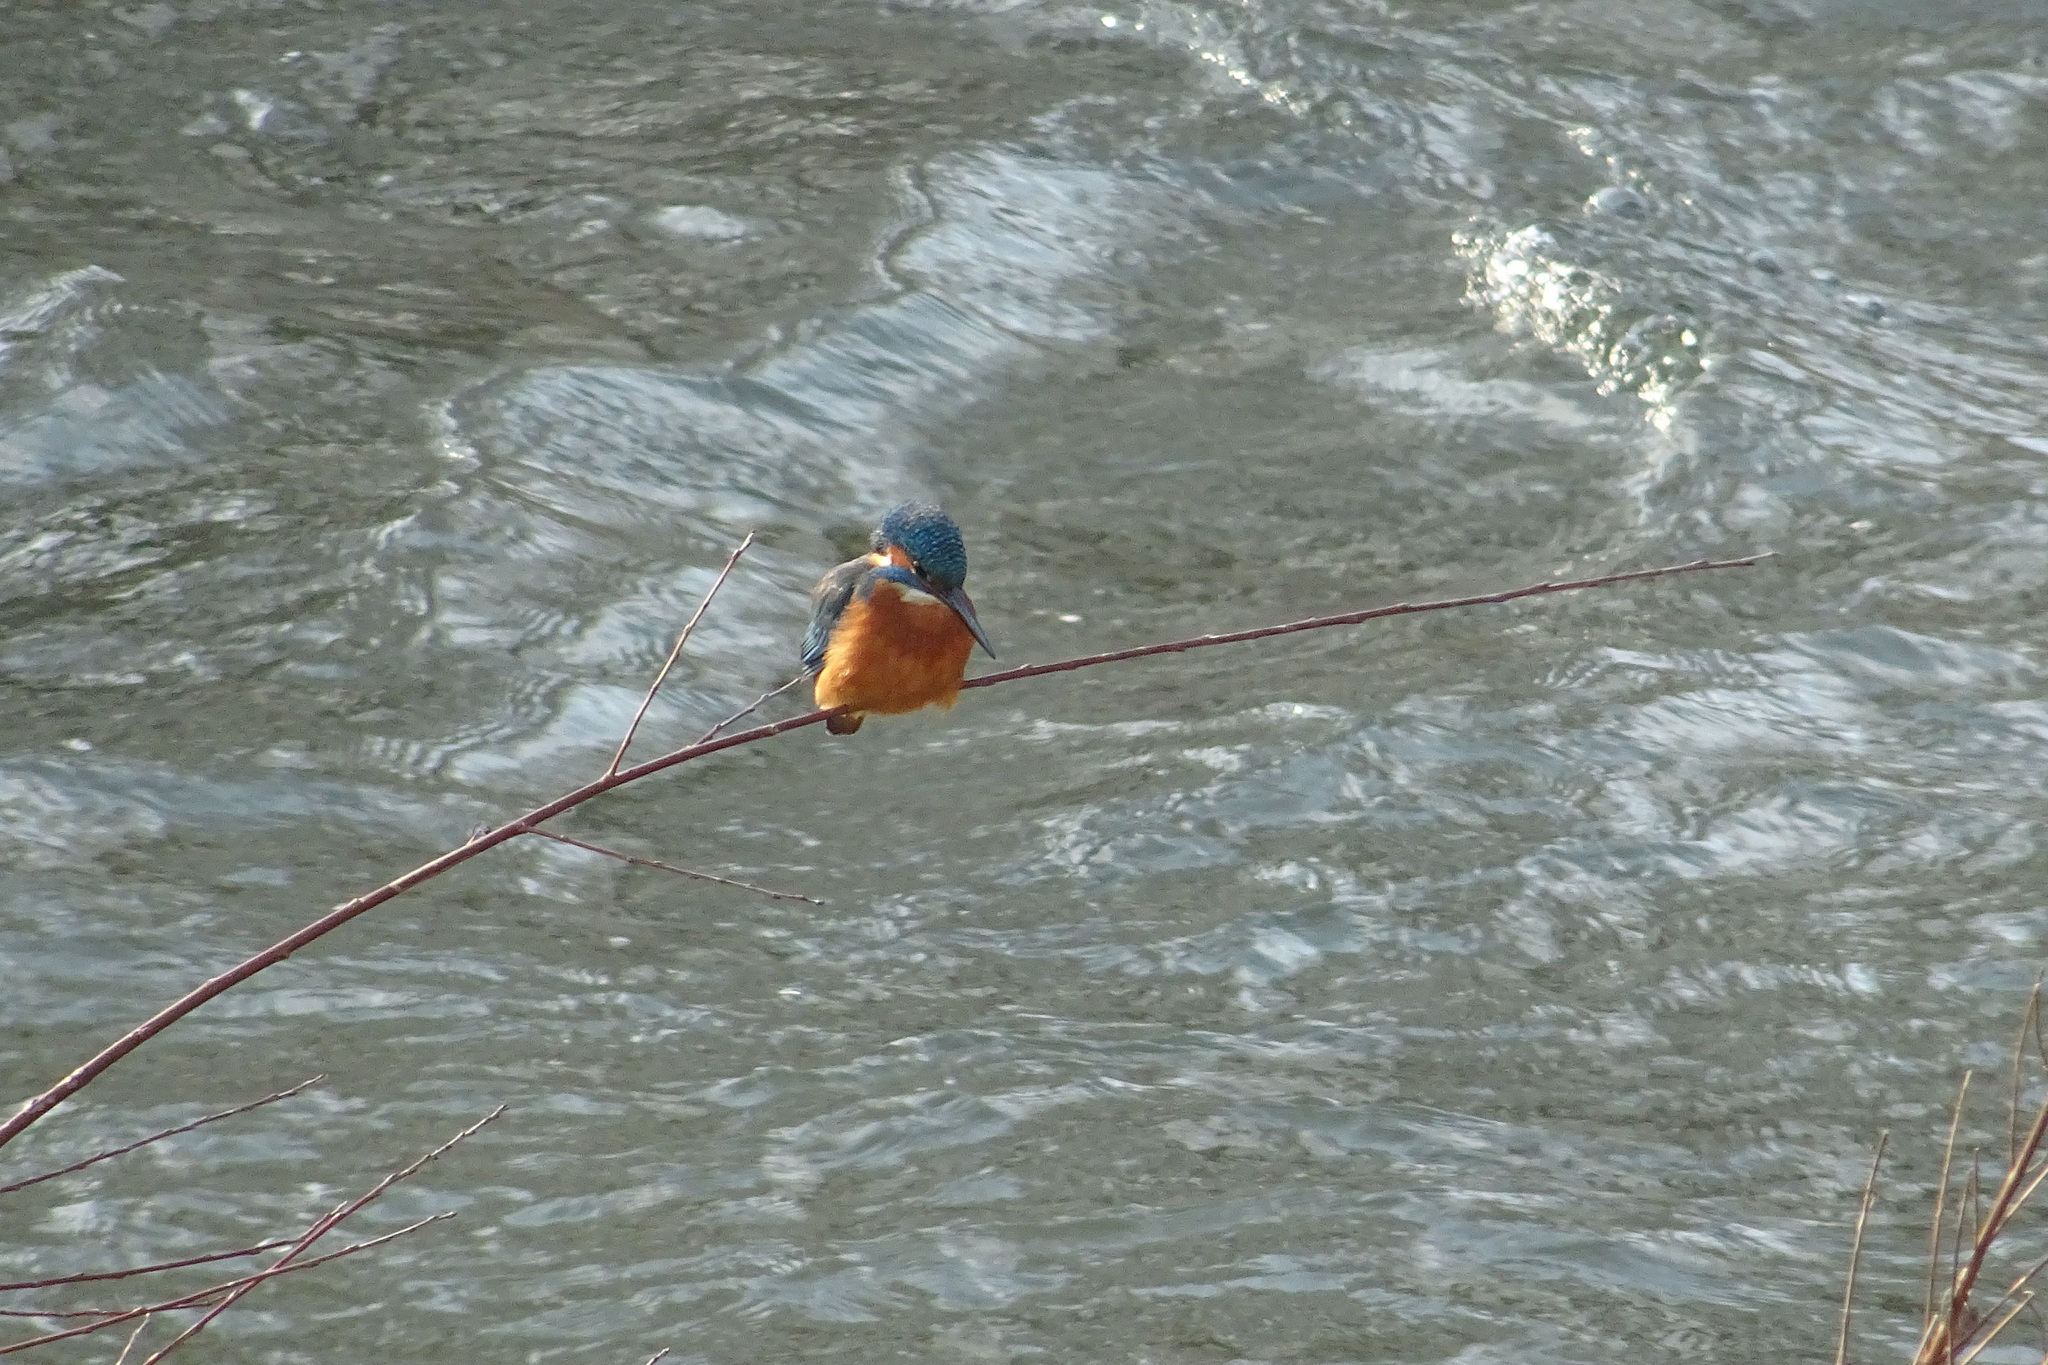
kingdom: Animalia
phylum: Chordata
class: Aves
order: Coraciiformes
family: Alcedinidae
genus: Alcedo
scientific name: Alcedo atthis
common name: Common kingfisher
